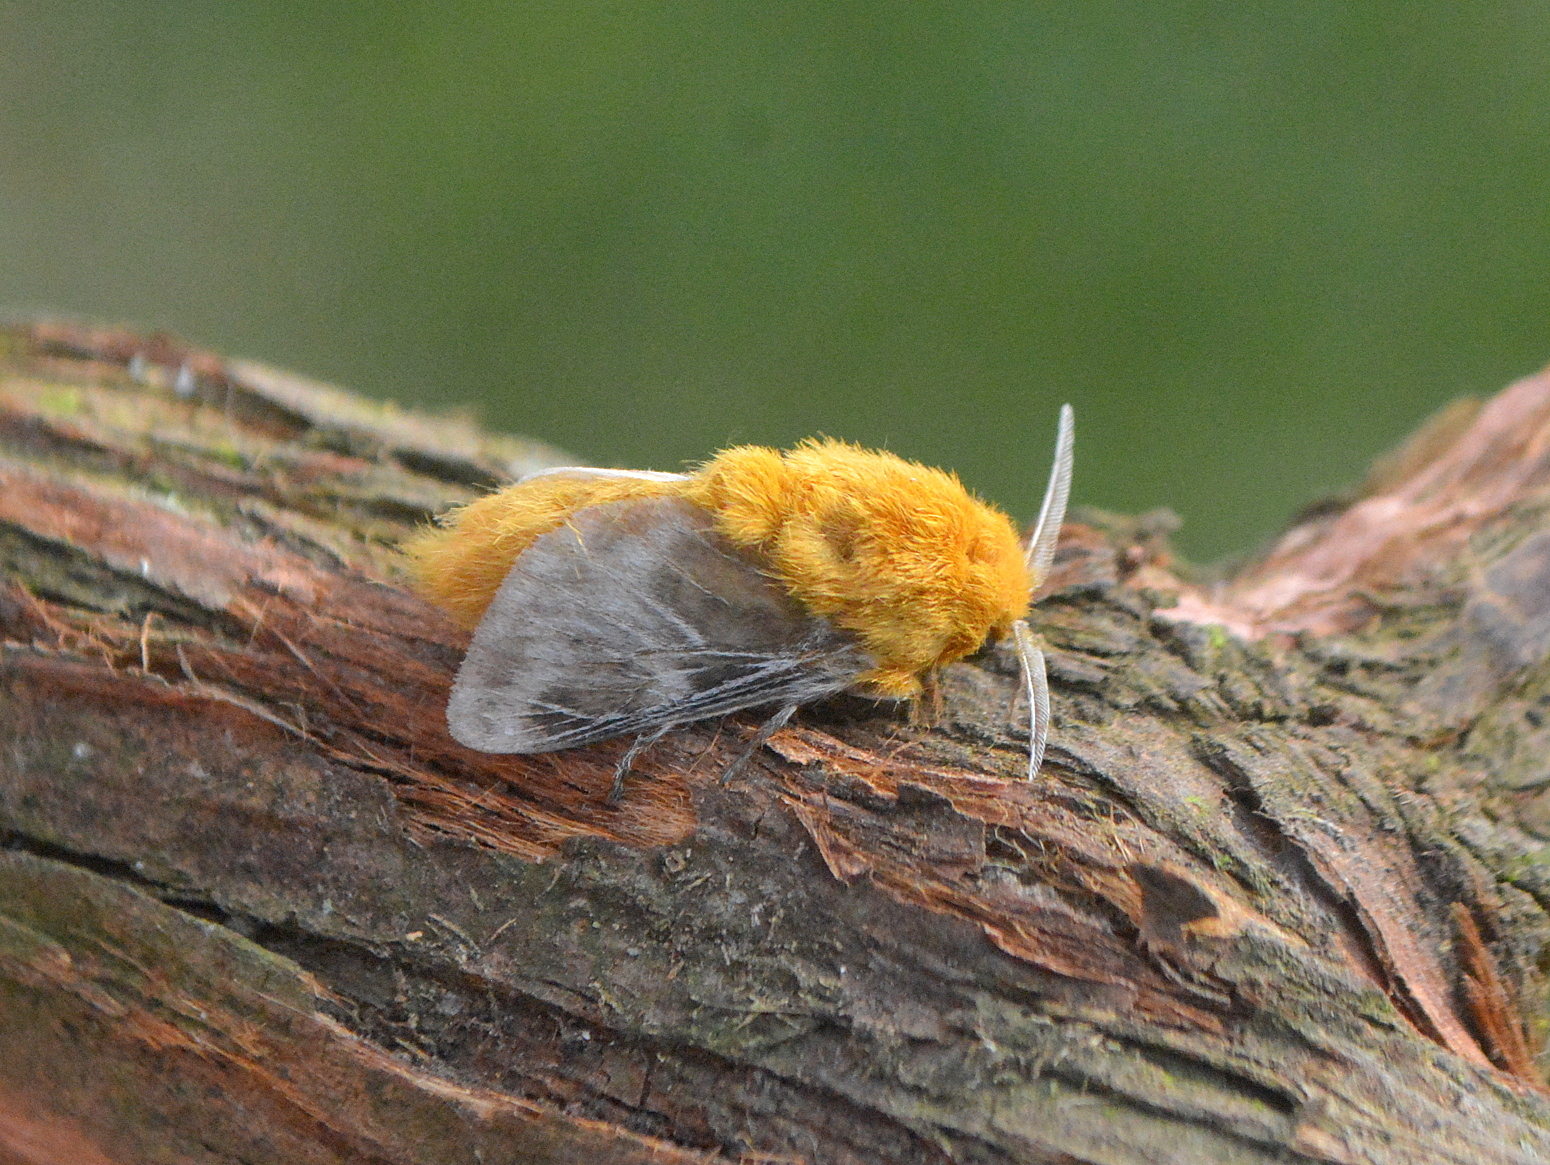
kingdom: Animalia
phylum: Arthropoda
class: Insecta
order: Lepidoptera
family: Megalopygidae
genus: Megalopyge
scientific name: Megalopyge undulata
